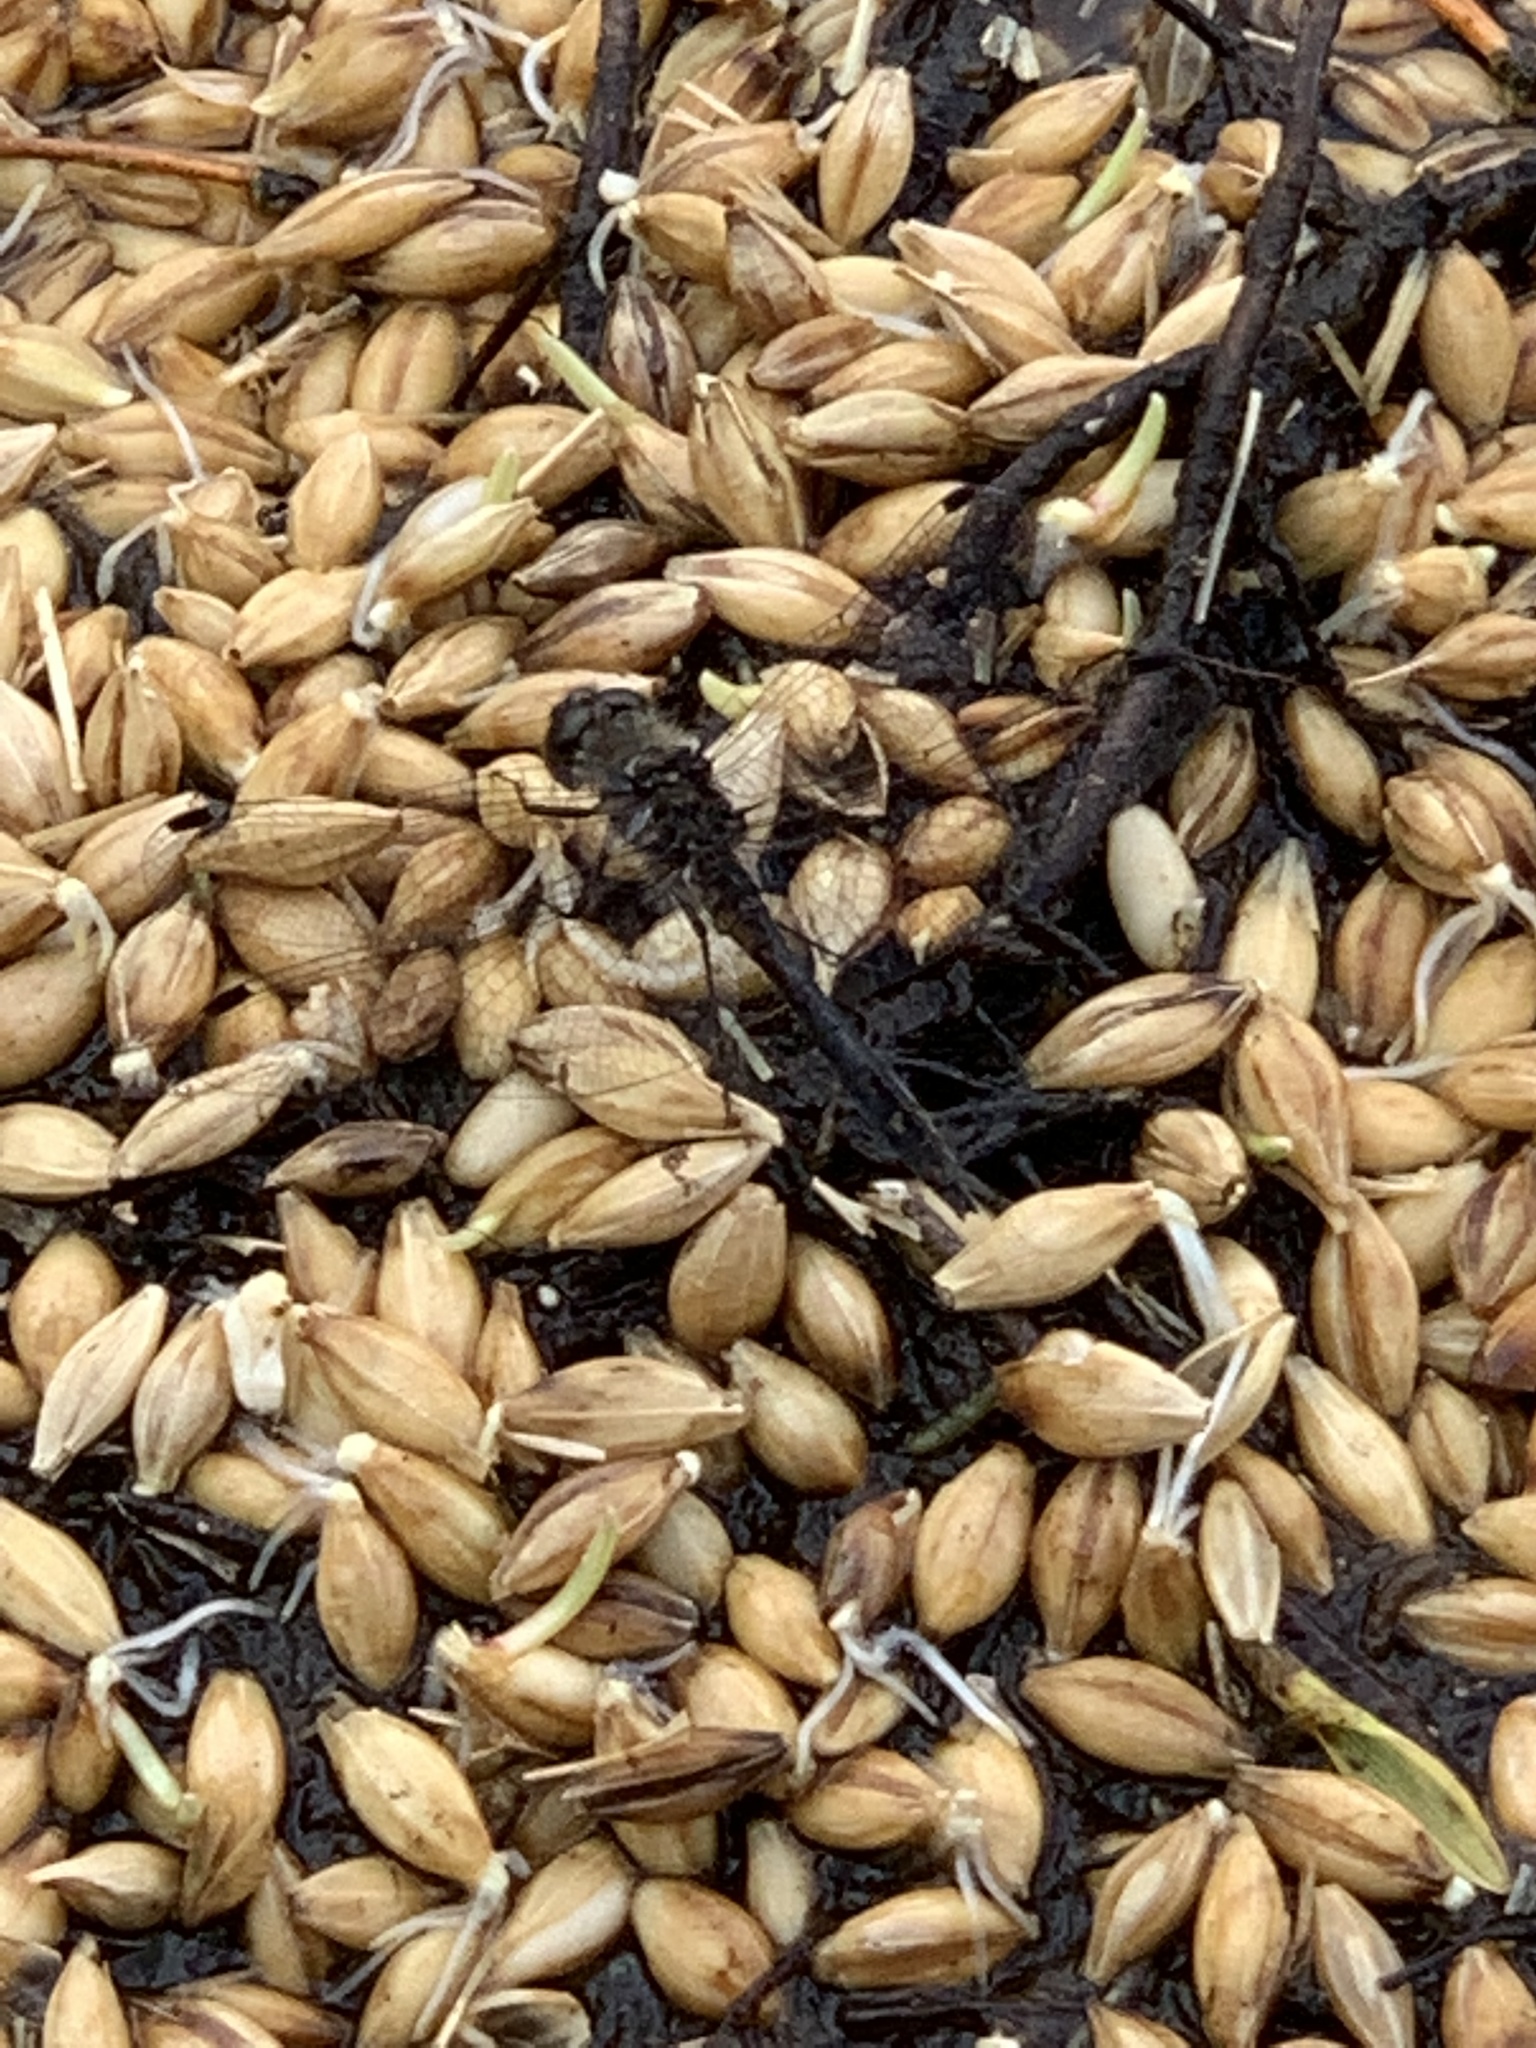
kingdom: Animalia
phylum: Arthropoda
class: Insecta
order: Odonata
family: Libellulidae
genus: Sympetrum
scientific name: Sympetrum danae
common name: Black darter
